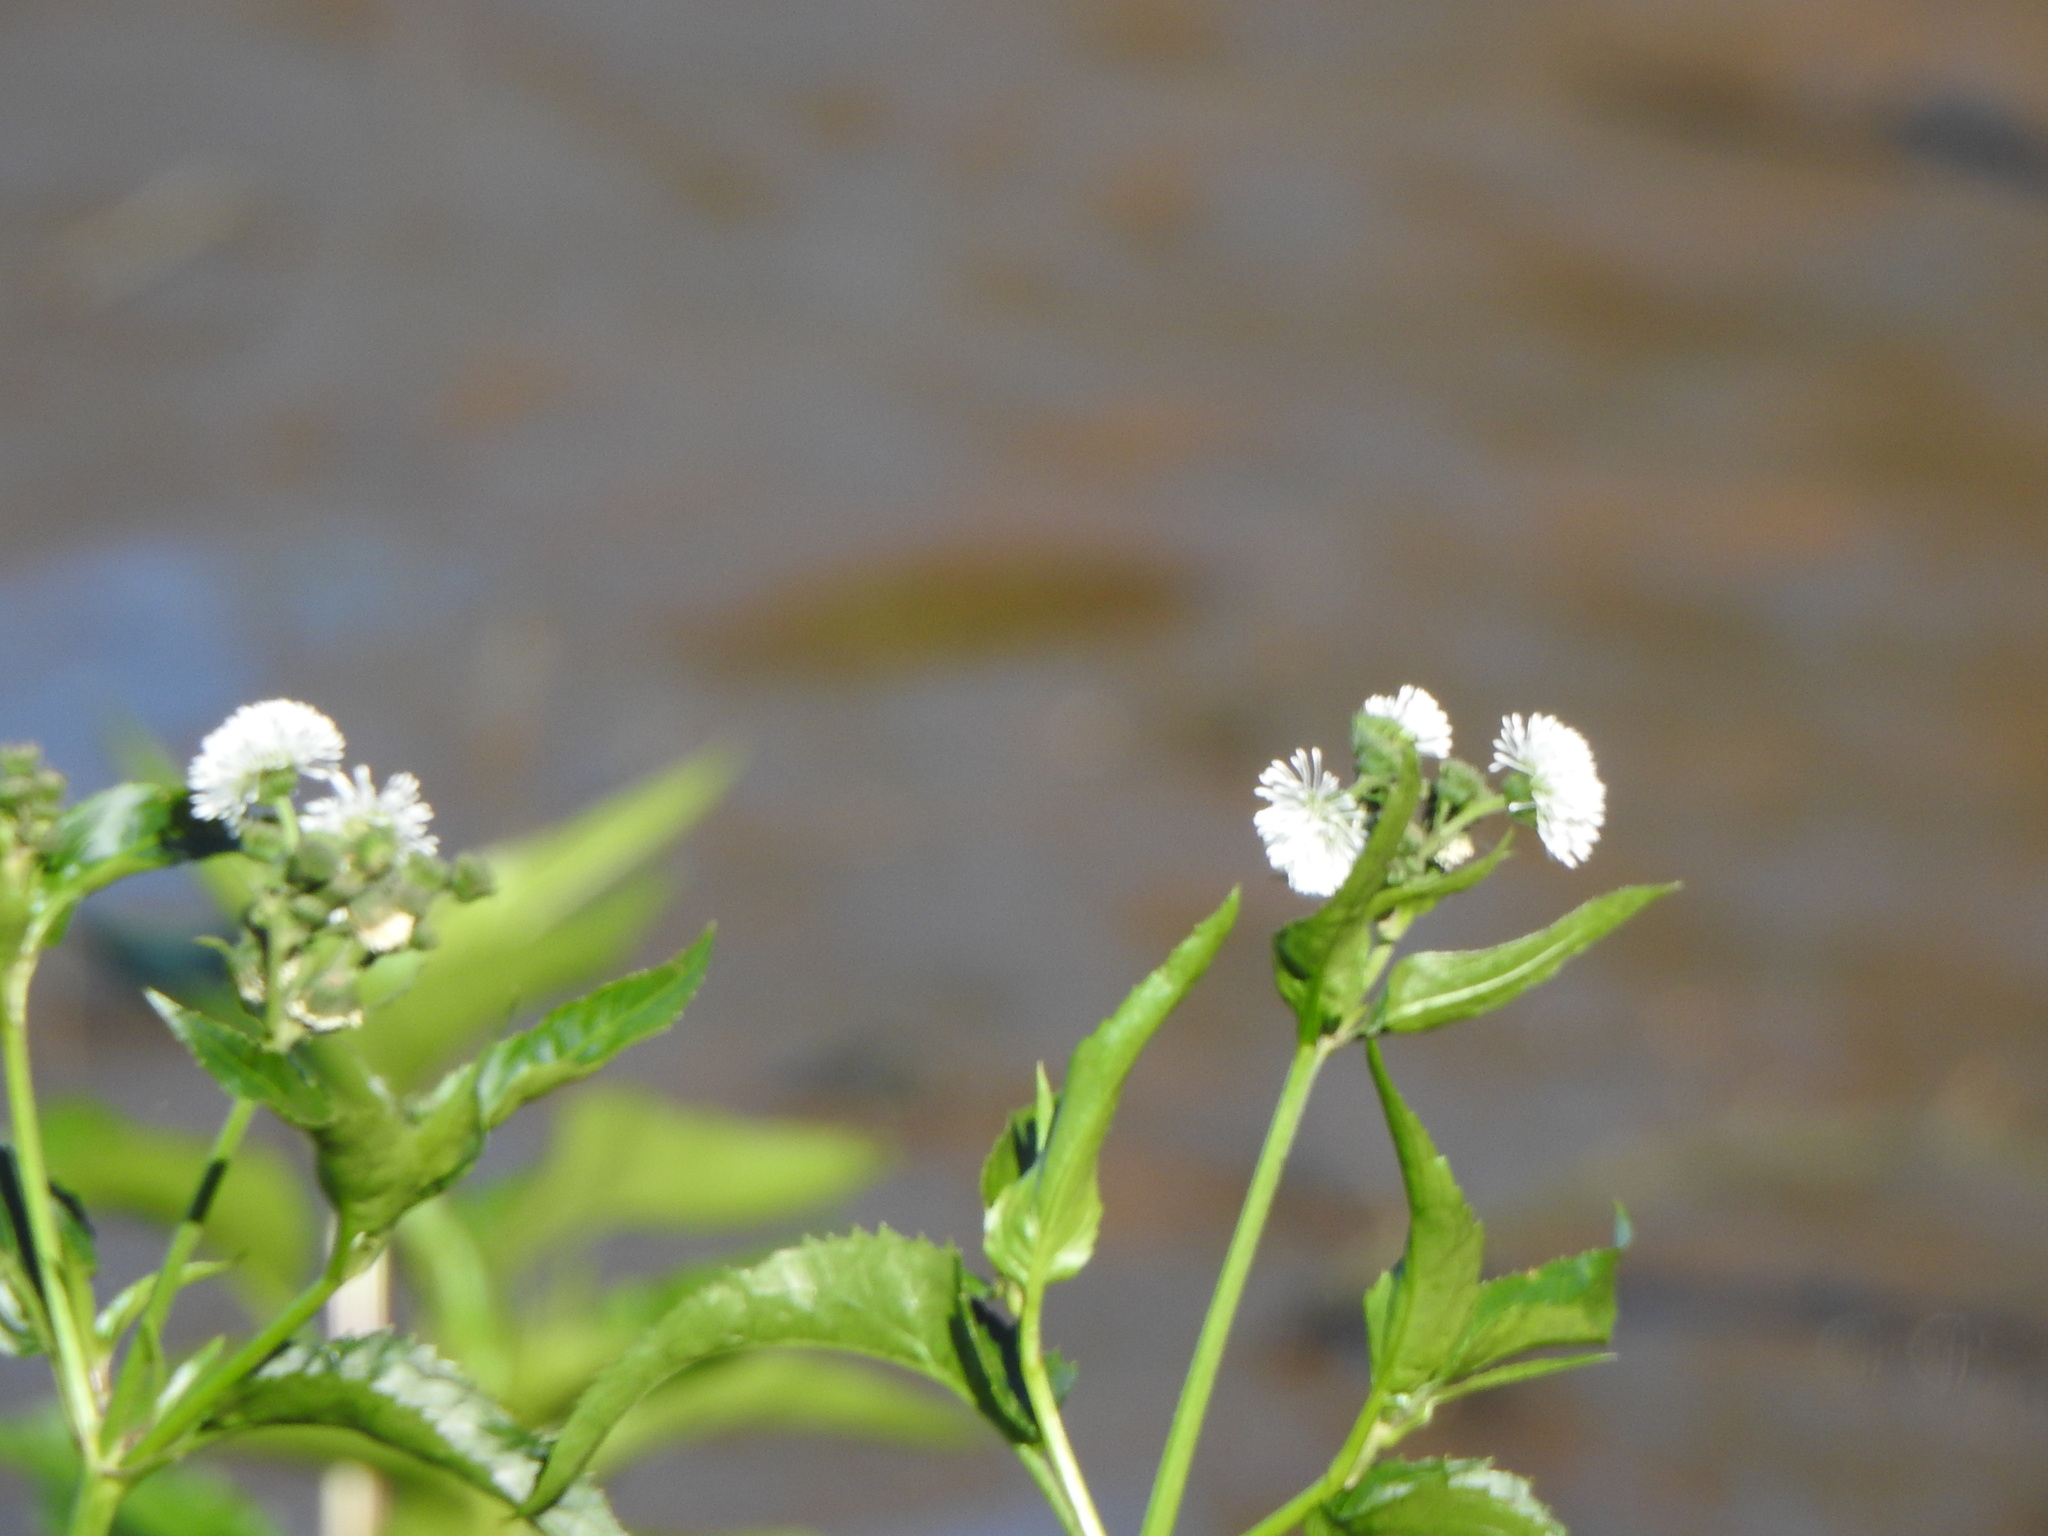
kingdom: Plantae
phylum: Tracheophyta
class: Magnoliopsida
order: Asterales
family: Asteraceae
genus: Gymnocoronis
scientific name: Gymnocoronis spilanthoides
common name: Senegal teaplant
